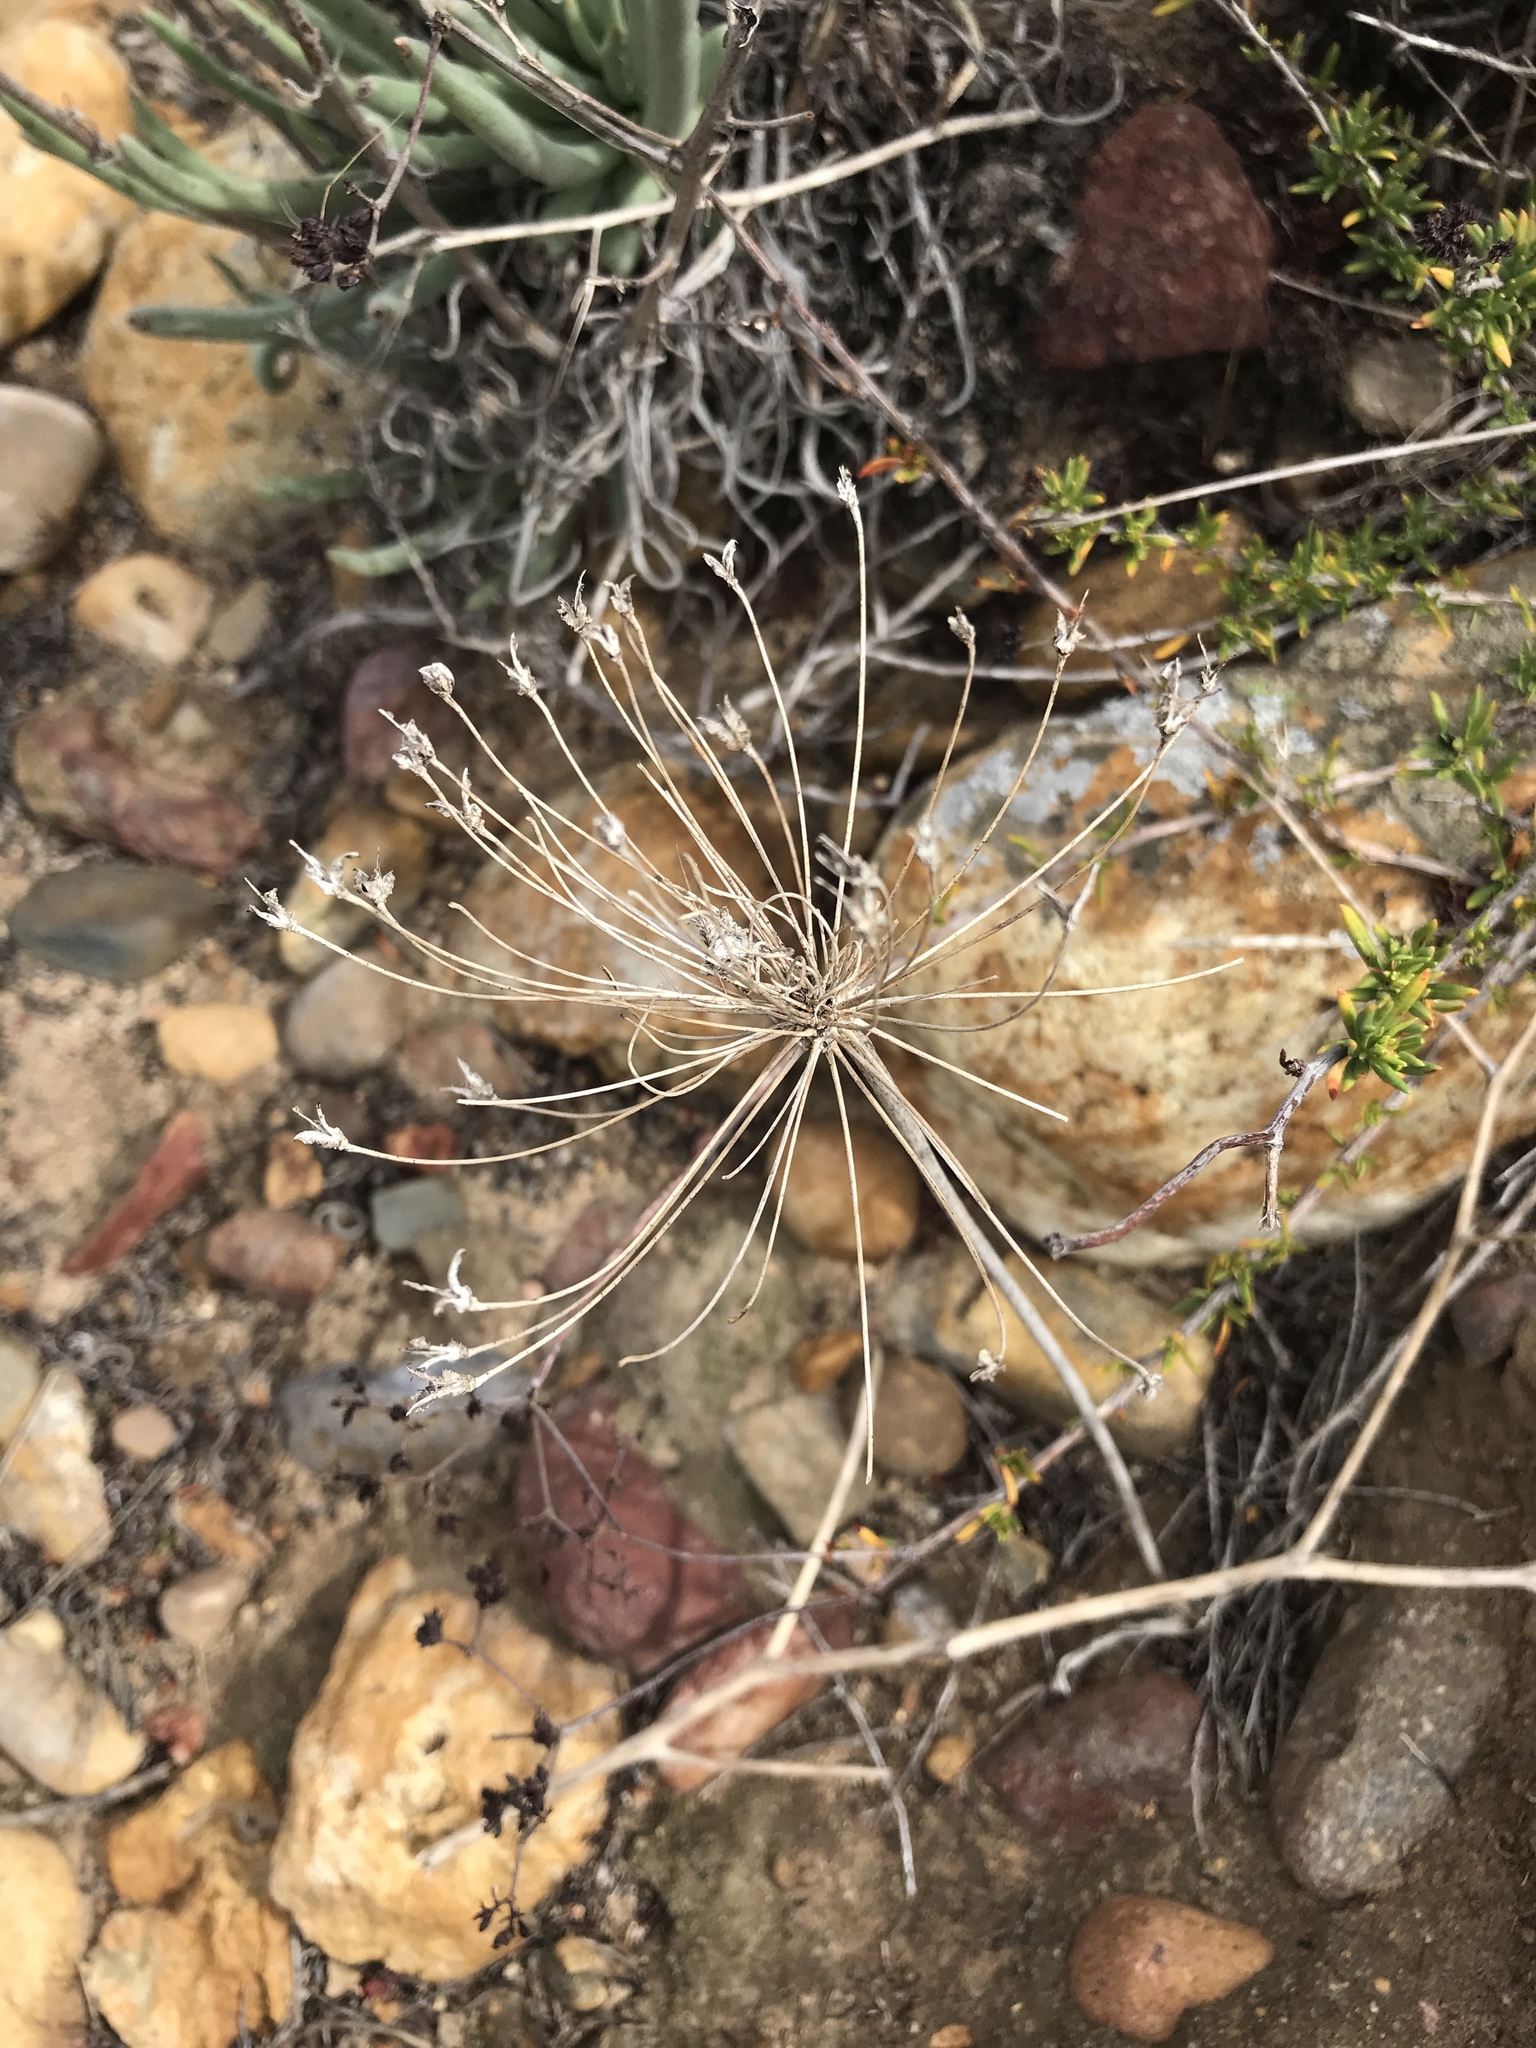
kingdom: Plantae
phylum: Tracheophyta
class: Liliopsida
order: Asparagales
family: Asparagaceae
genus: Bloomeria
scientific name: Bloomeria crocea
